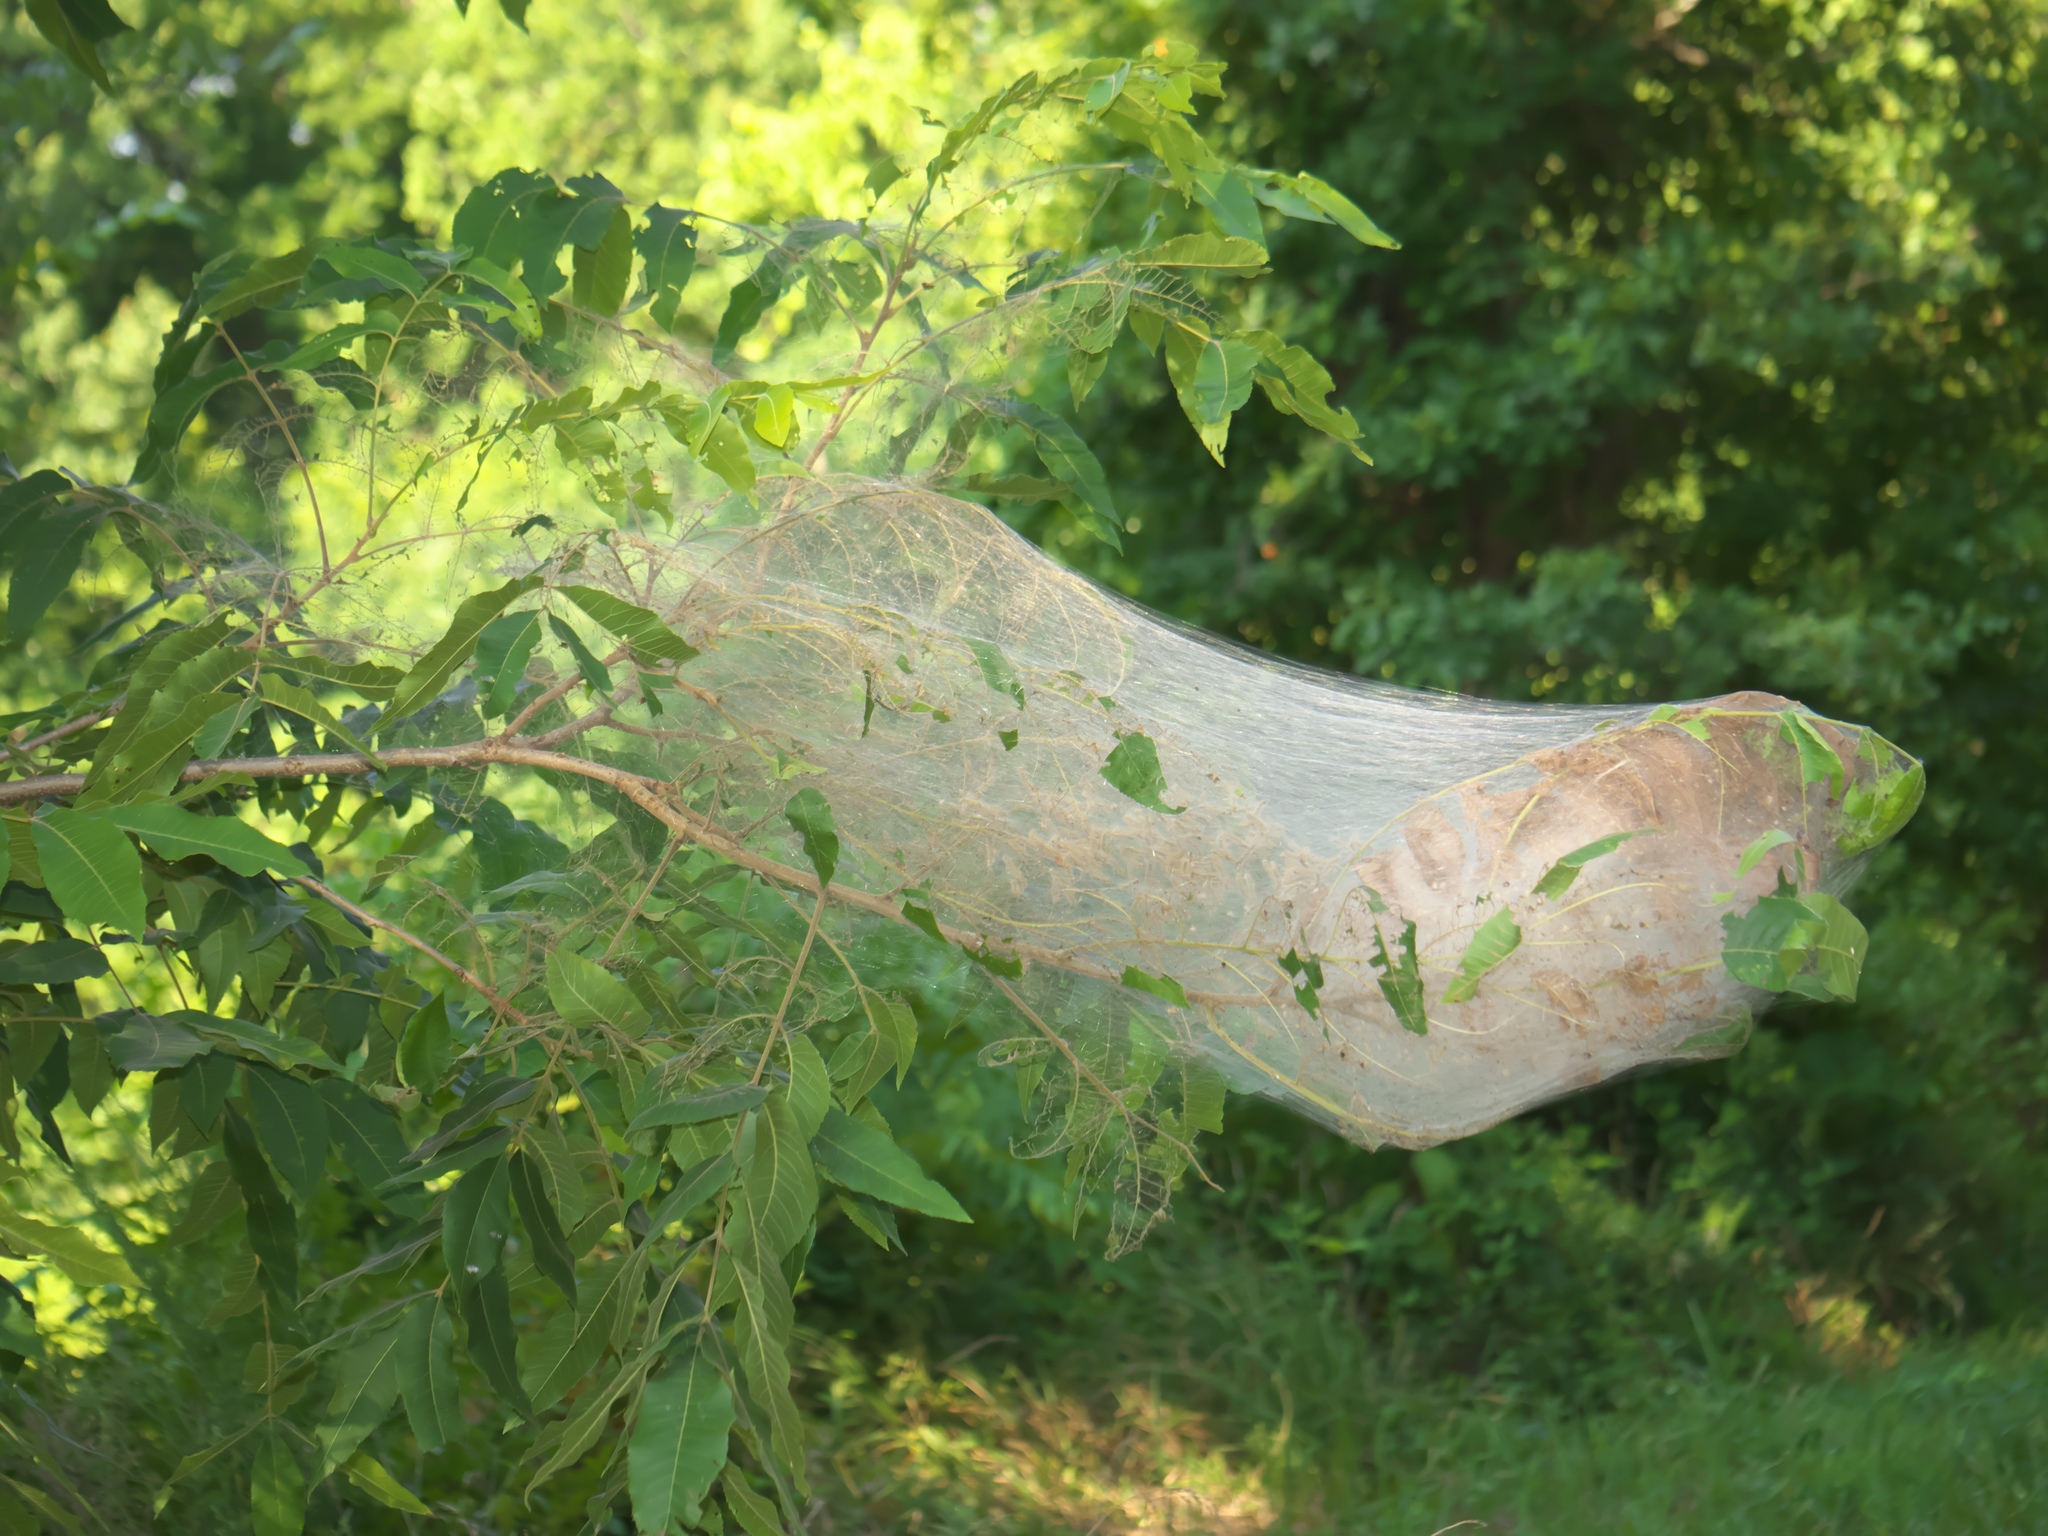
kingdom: Animalia
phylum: Arthropoda
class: Insecta
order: Lepidoptera
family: Erebidae
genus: Hyphantria
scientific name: Hyphantria cunea
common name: American white moth
